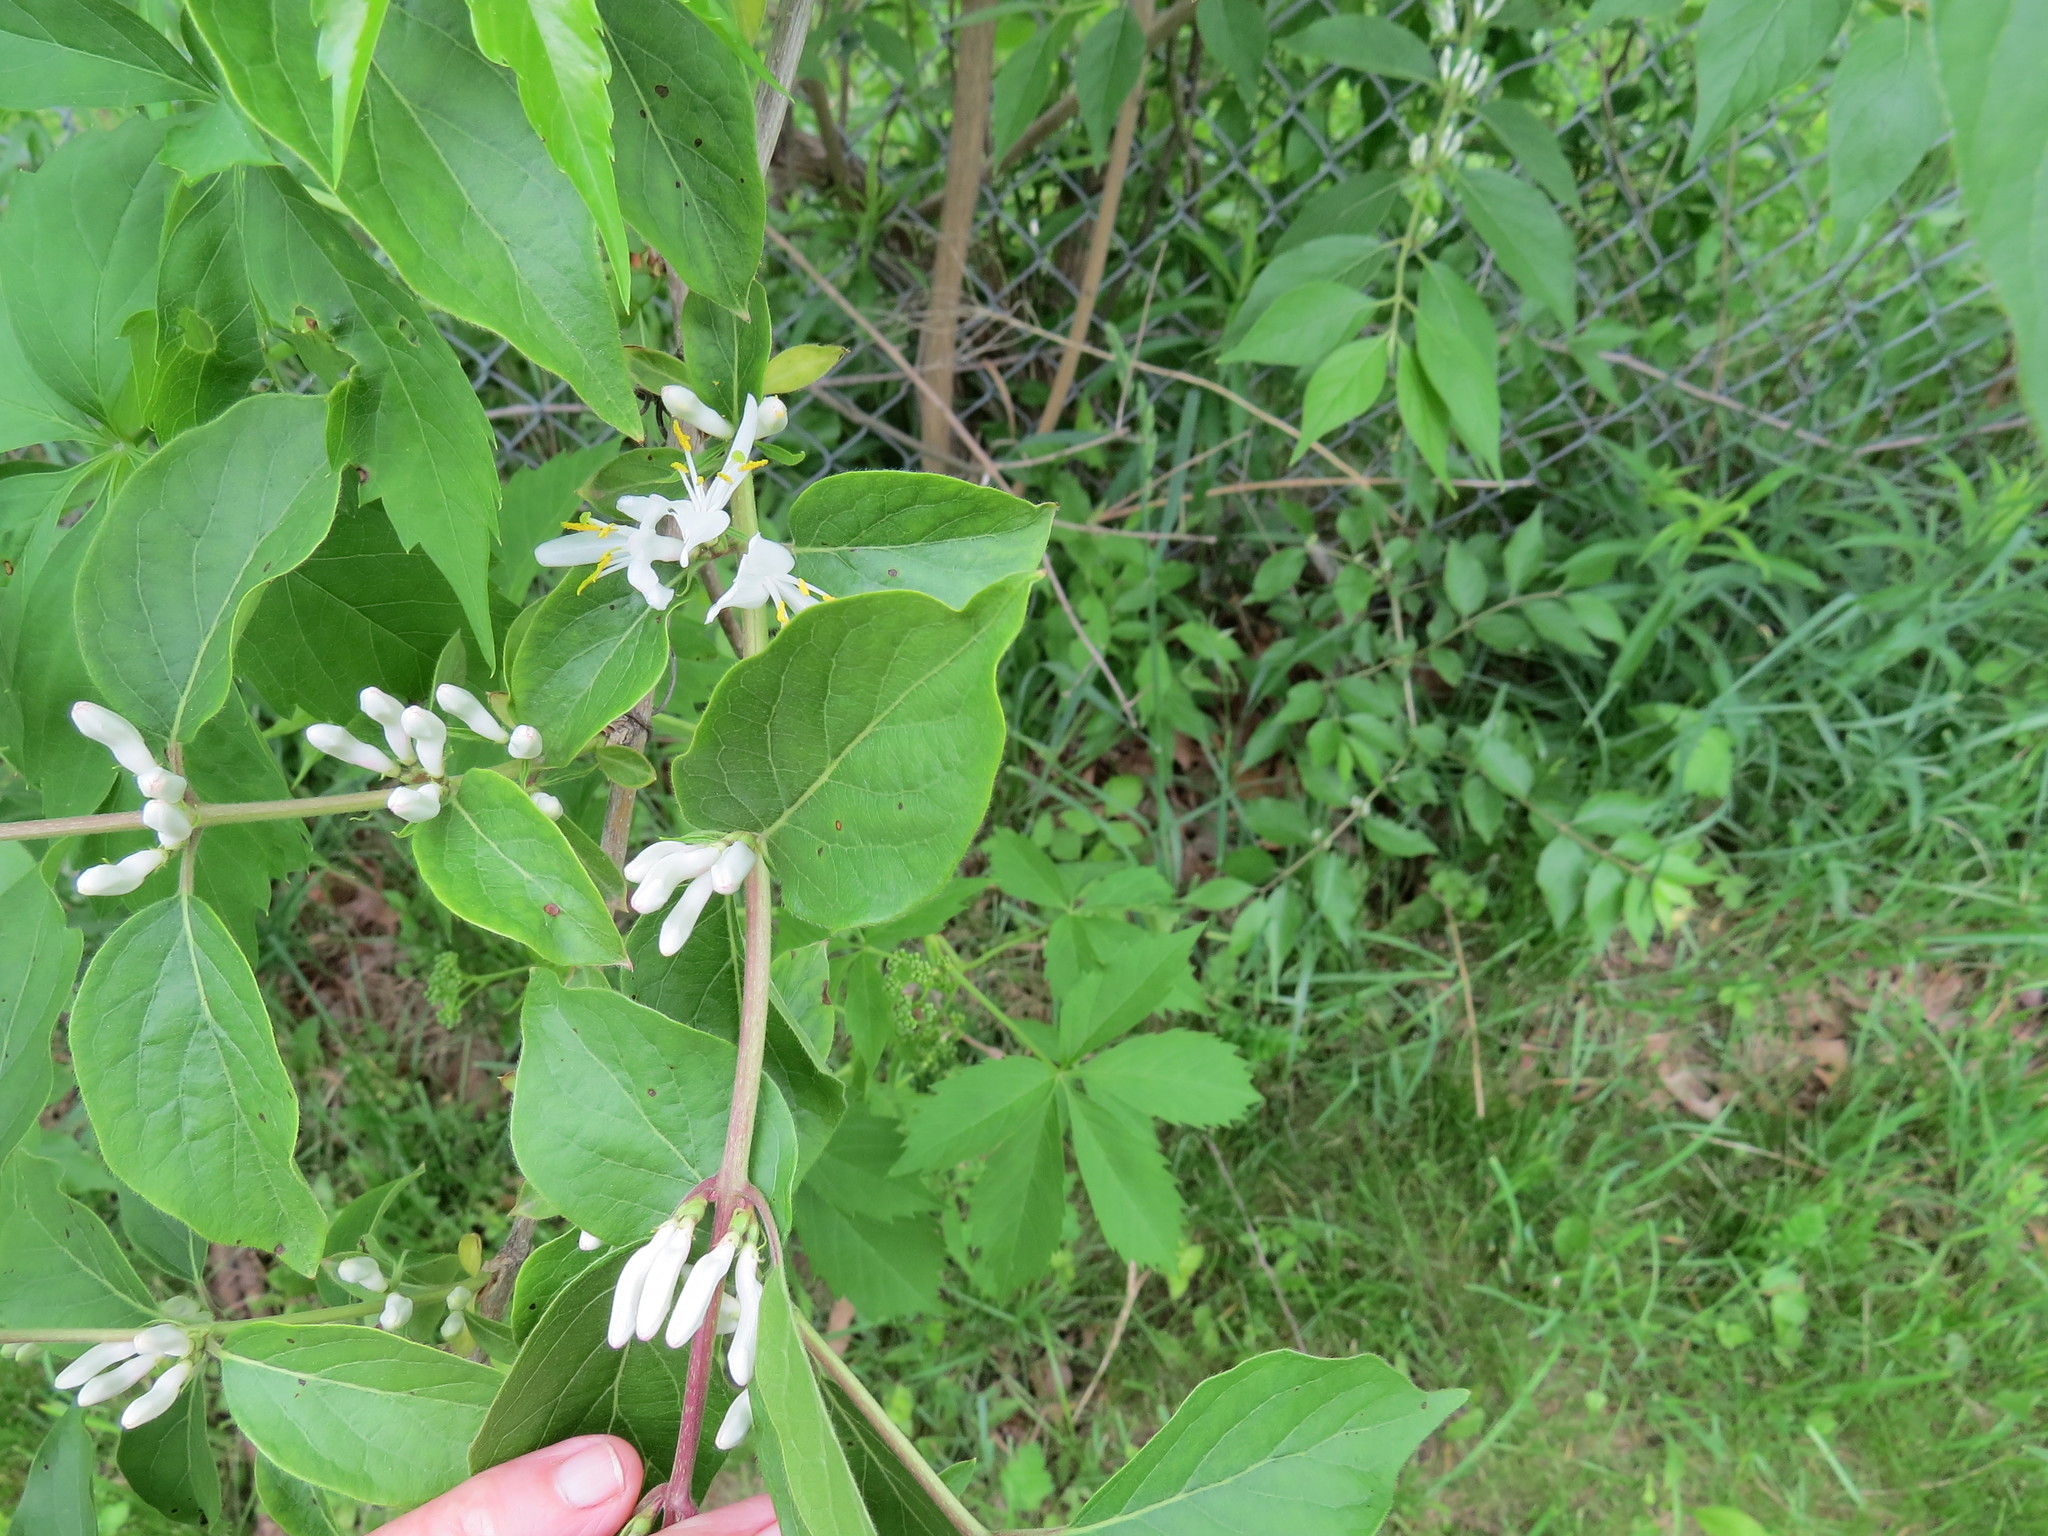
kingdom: Plantae
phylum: Tracheophyta
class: Magnoliopsida
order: Dipsacales
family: Caprifoliaceae
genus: Lonicera
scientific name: Lonicera maackii
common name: Amur honeysuckle
